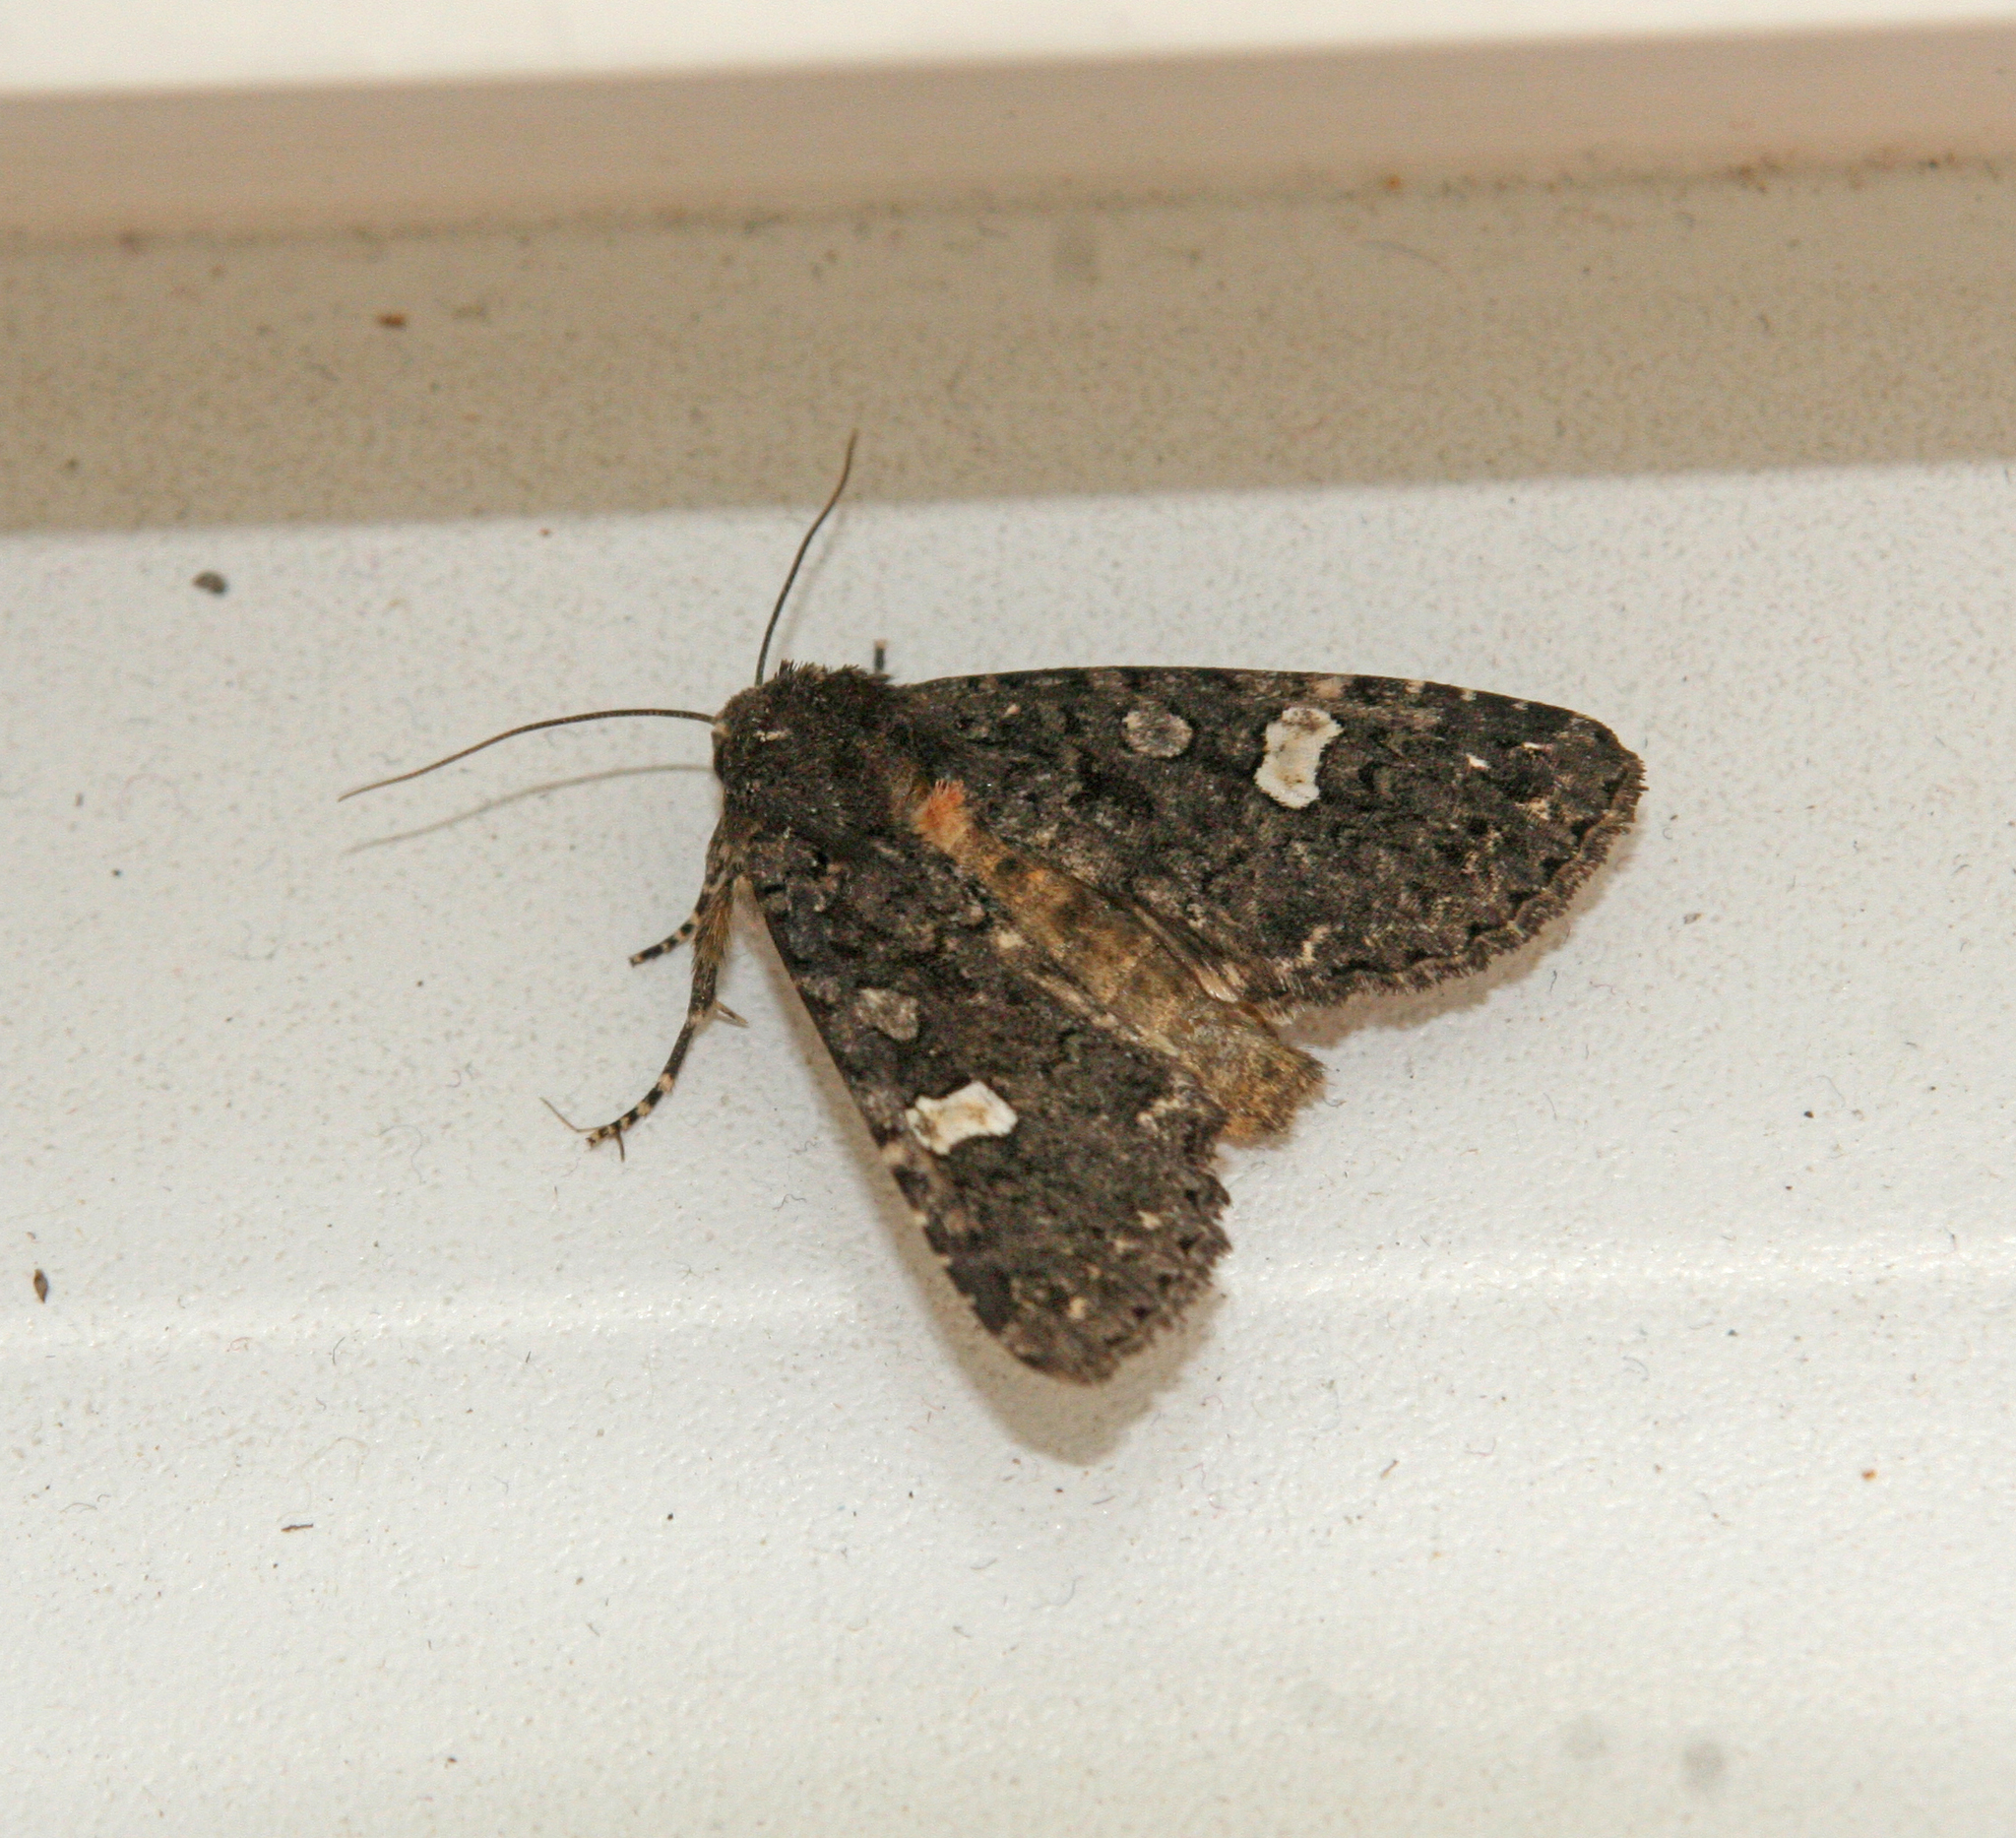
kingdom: Animalia
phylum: Arthropoda
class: Insecta
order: Lepidoptera
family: Noctuidae
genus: Melanchra
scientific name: Melanchra persicariae
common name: Dot moth
